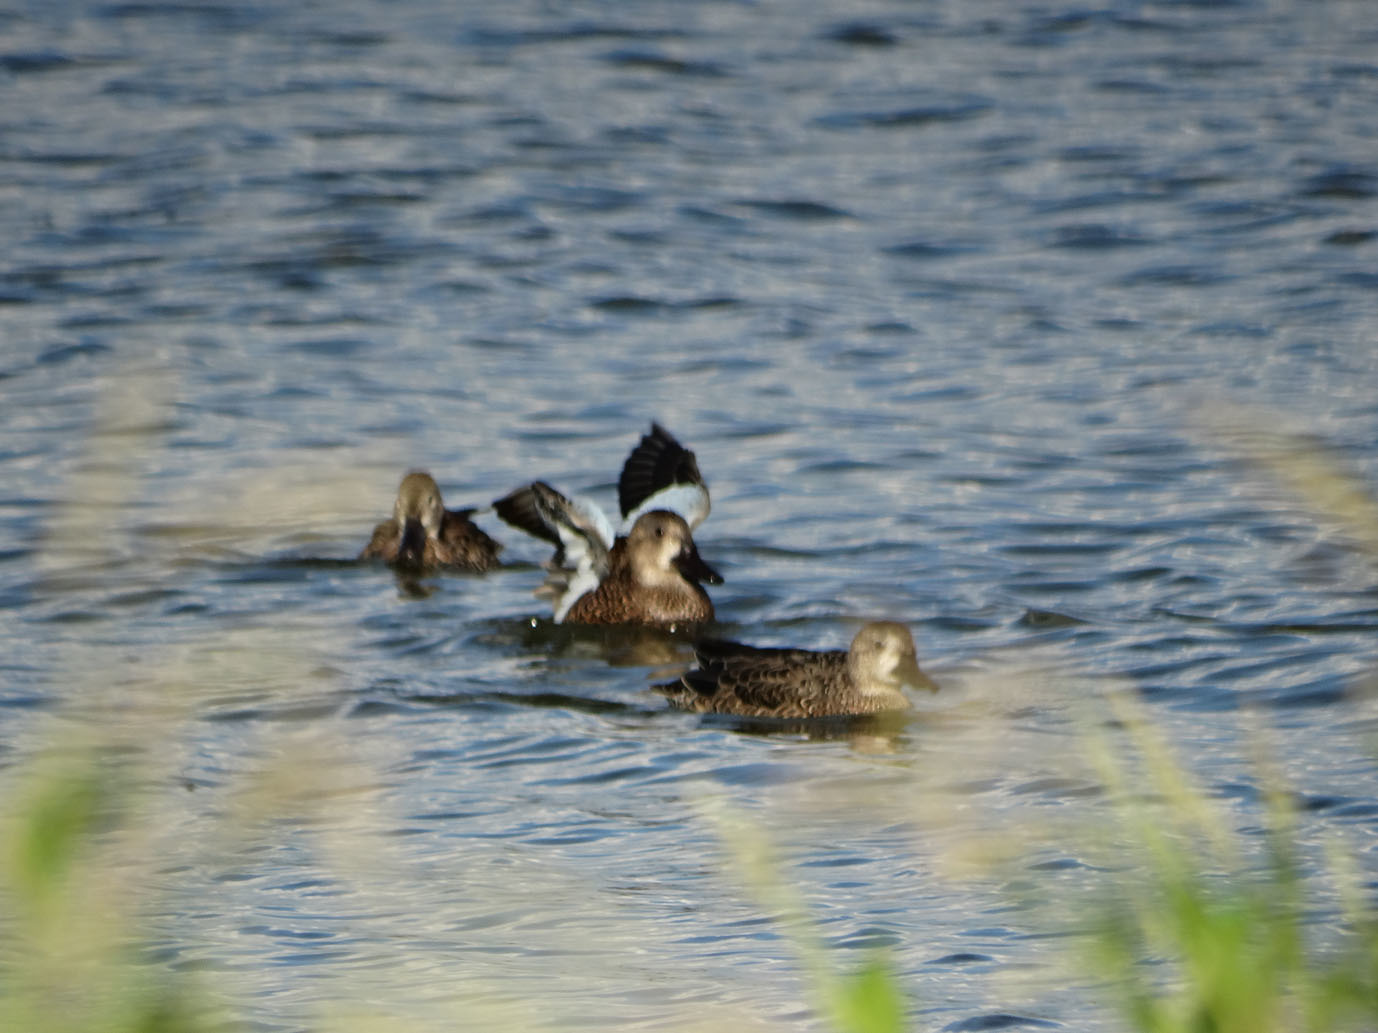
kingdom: Animalia
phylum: Chordata
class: Aves
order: Anseriformes
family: Anatidae
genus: Spatula
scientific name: Spatula discors
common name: Blue-winged teal
